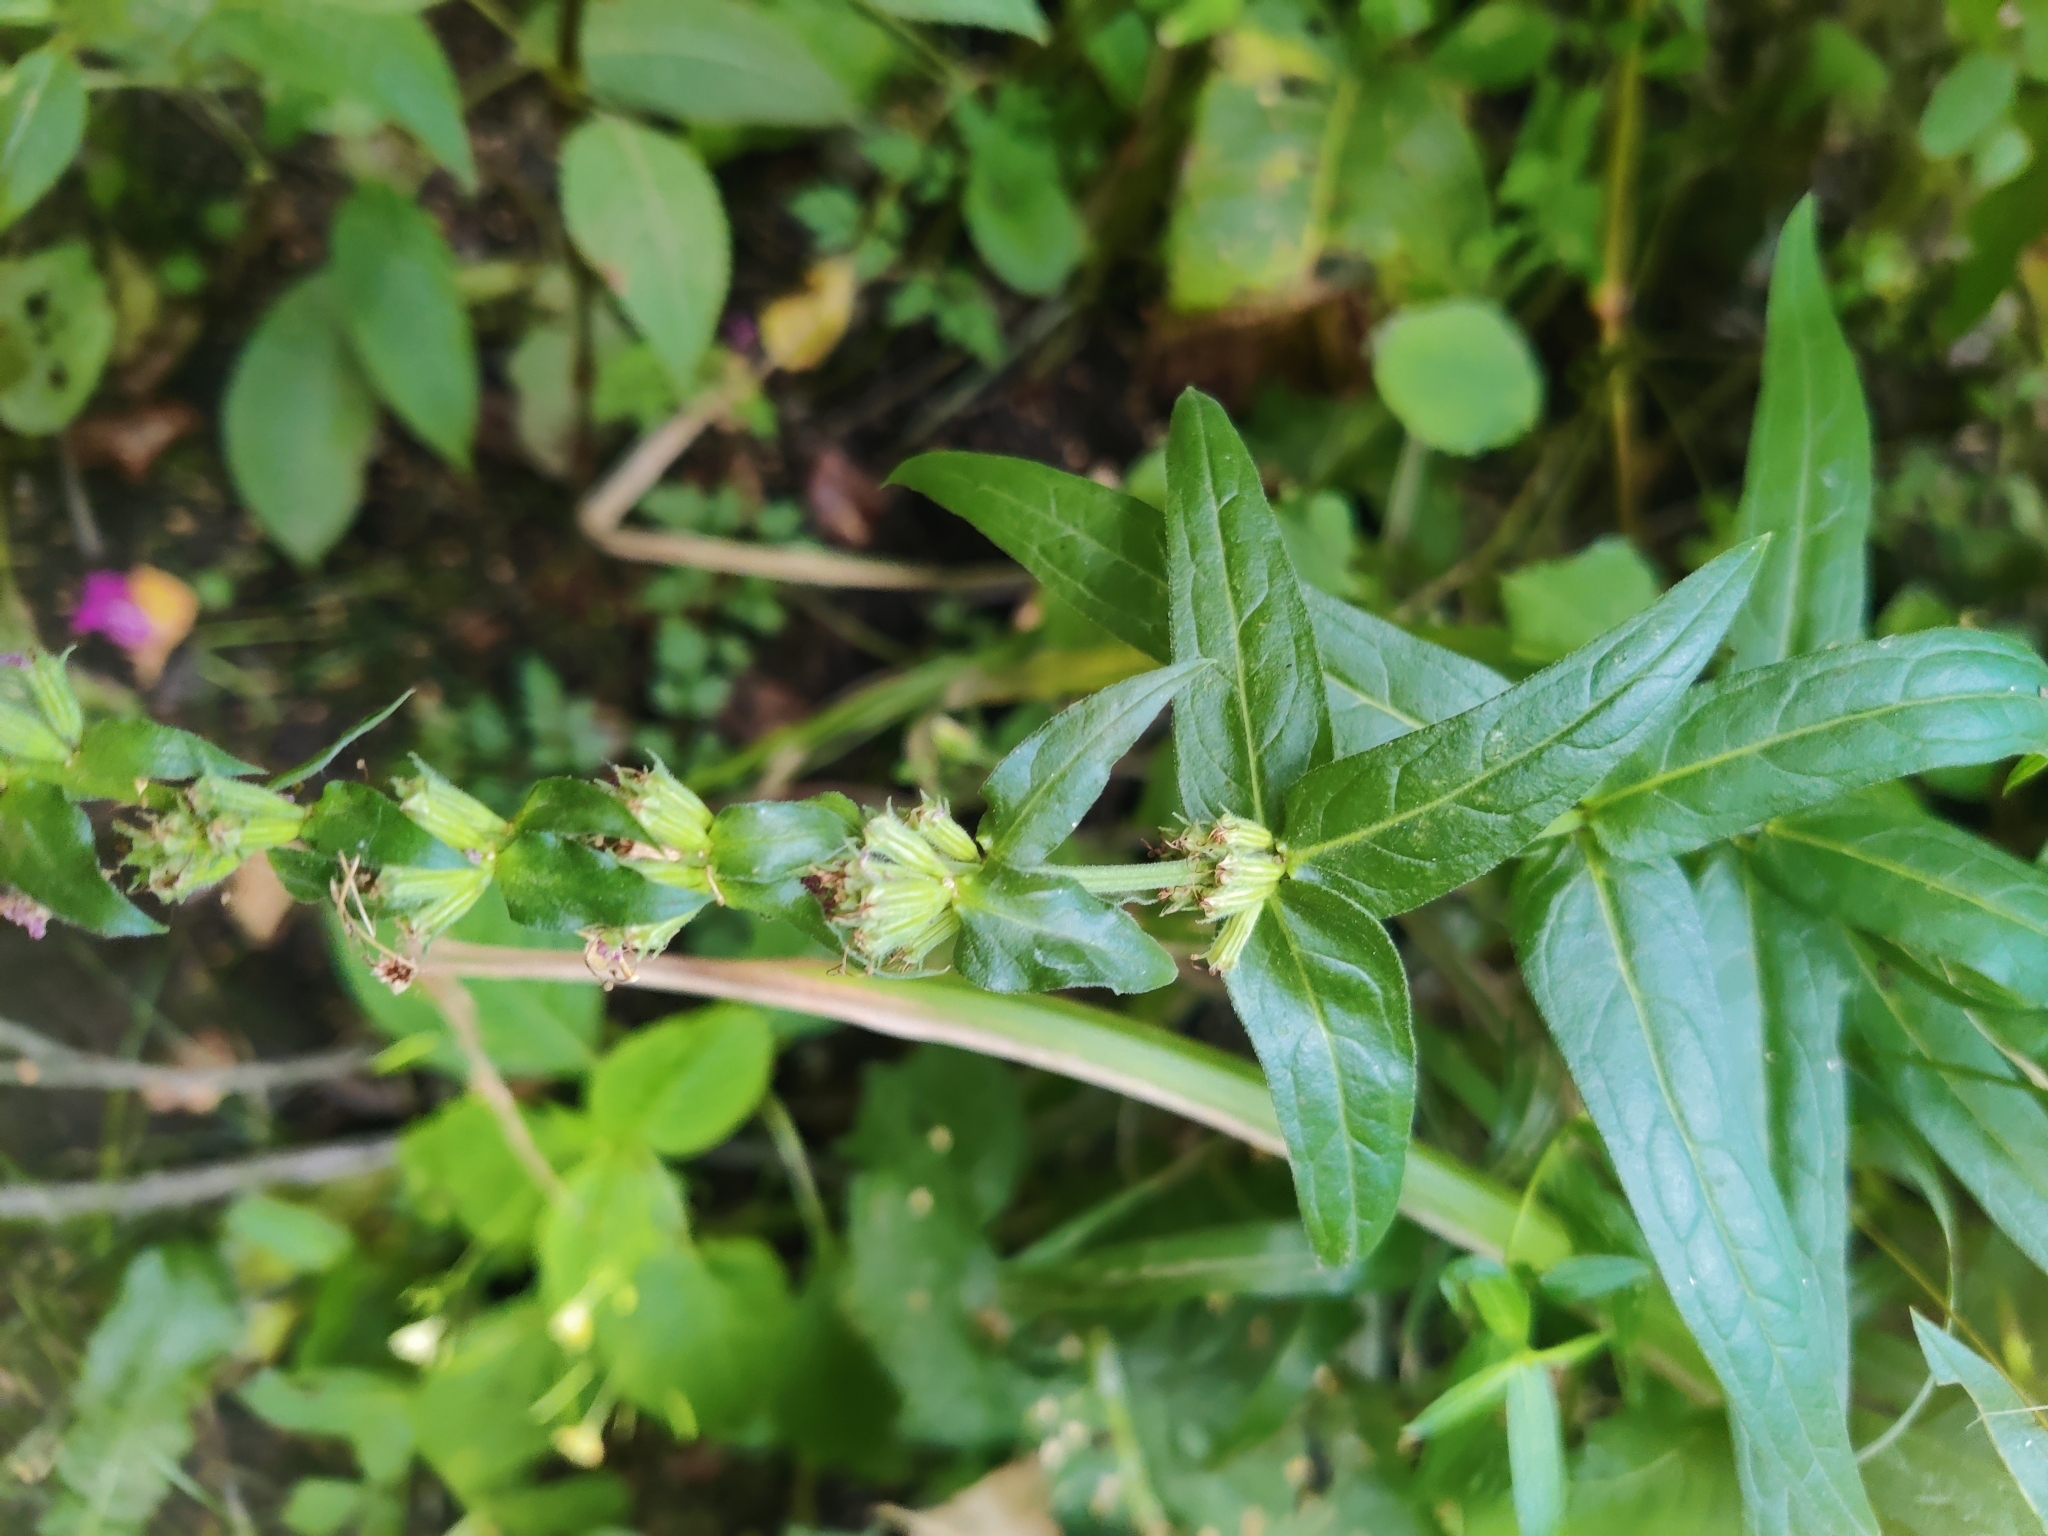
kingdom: Plantae
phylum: Tracheophyta
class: Magnoliopsida
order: Myrtales
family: Lythraceae
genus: Lythrum
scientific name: Lythrum salicaria
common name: Purple loosestrife
